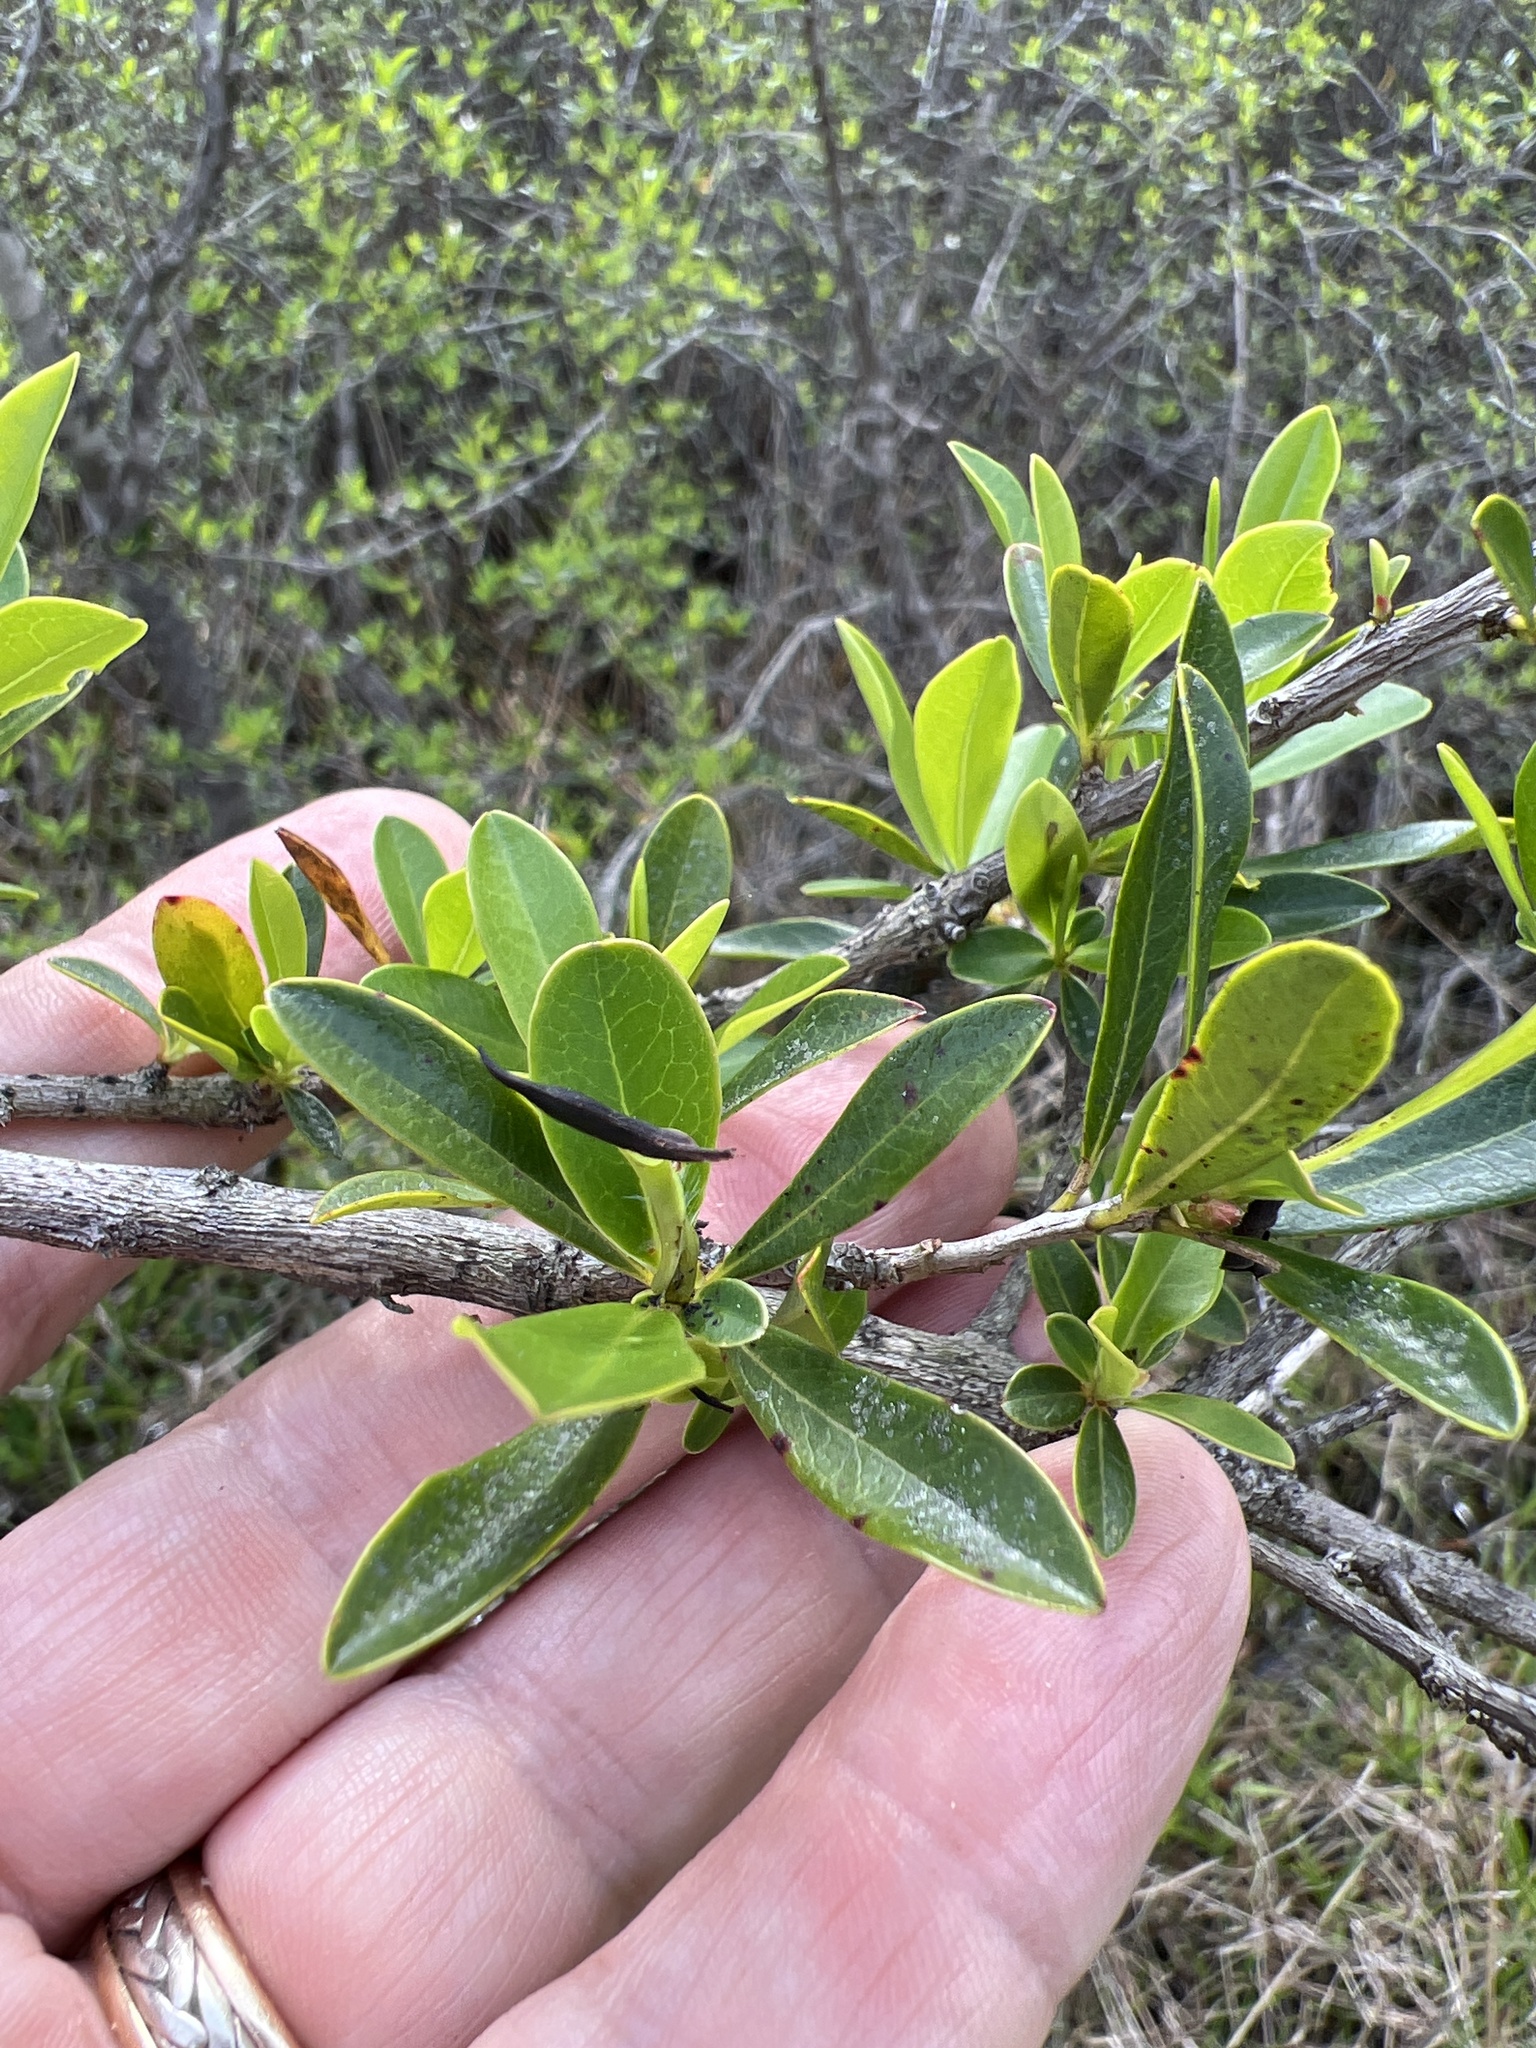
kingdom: Plantae
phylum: Tracheophyta
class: Magnoliopsida
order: Ericales
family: Cyrillaceae
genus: Cyrilla
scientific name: Cyrilla racemiflora
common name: Black titi
